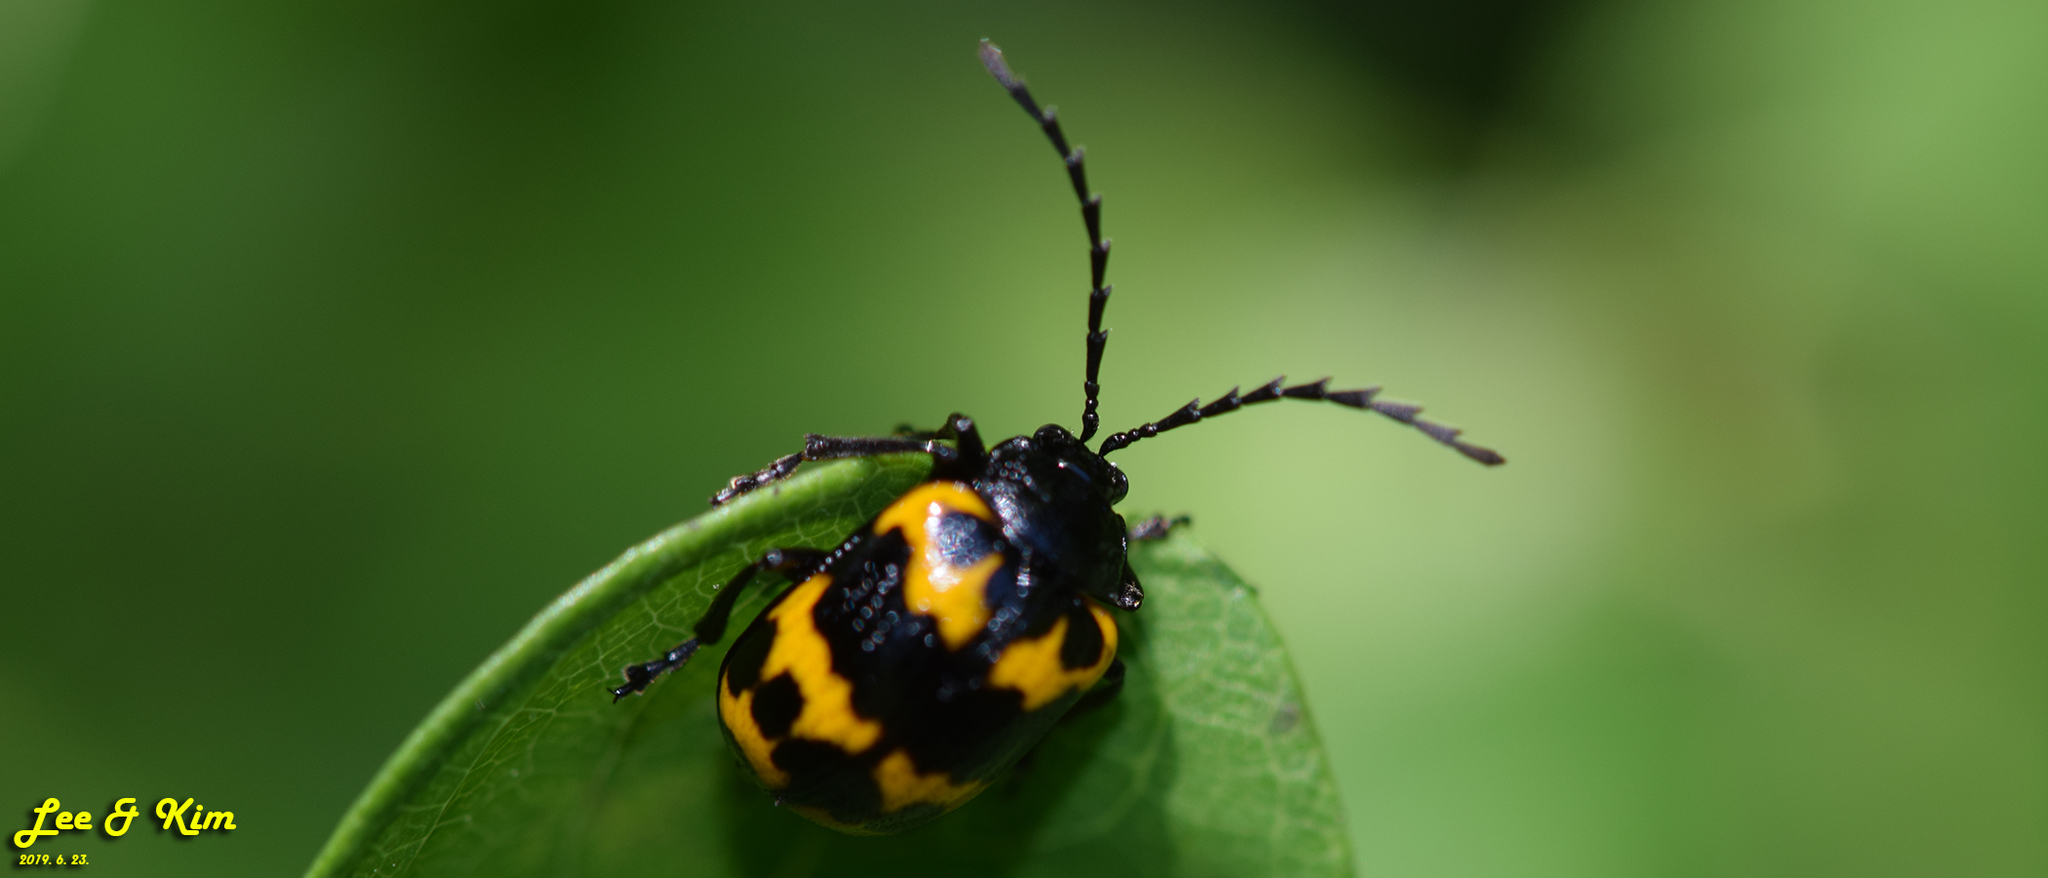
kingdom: Animalia
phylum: Arthropoda
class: Insecta
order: Coleoptera
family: Chrysomelidae
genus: Gallerucida
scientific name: Gallerucida bifasciata
